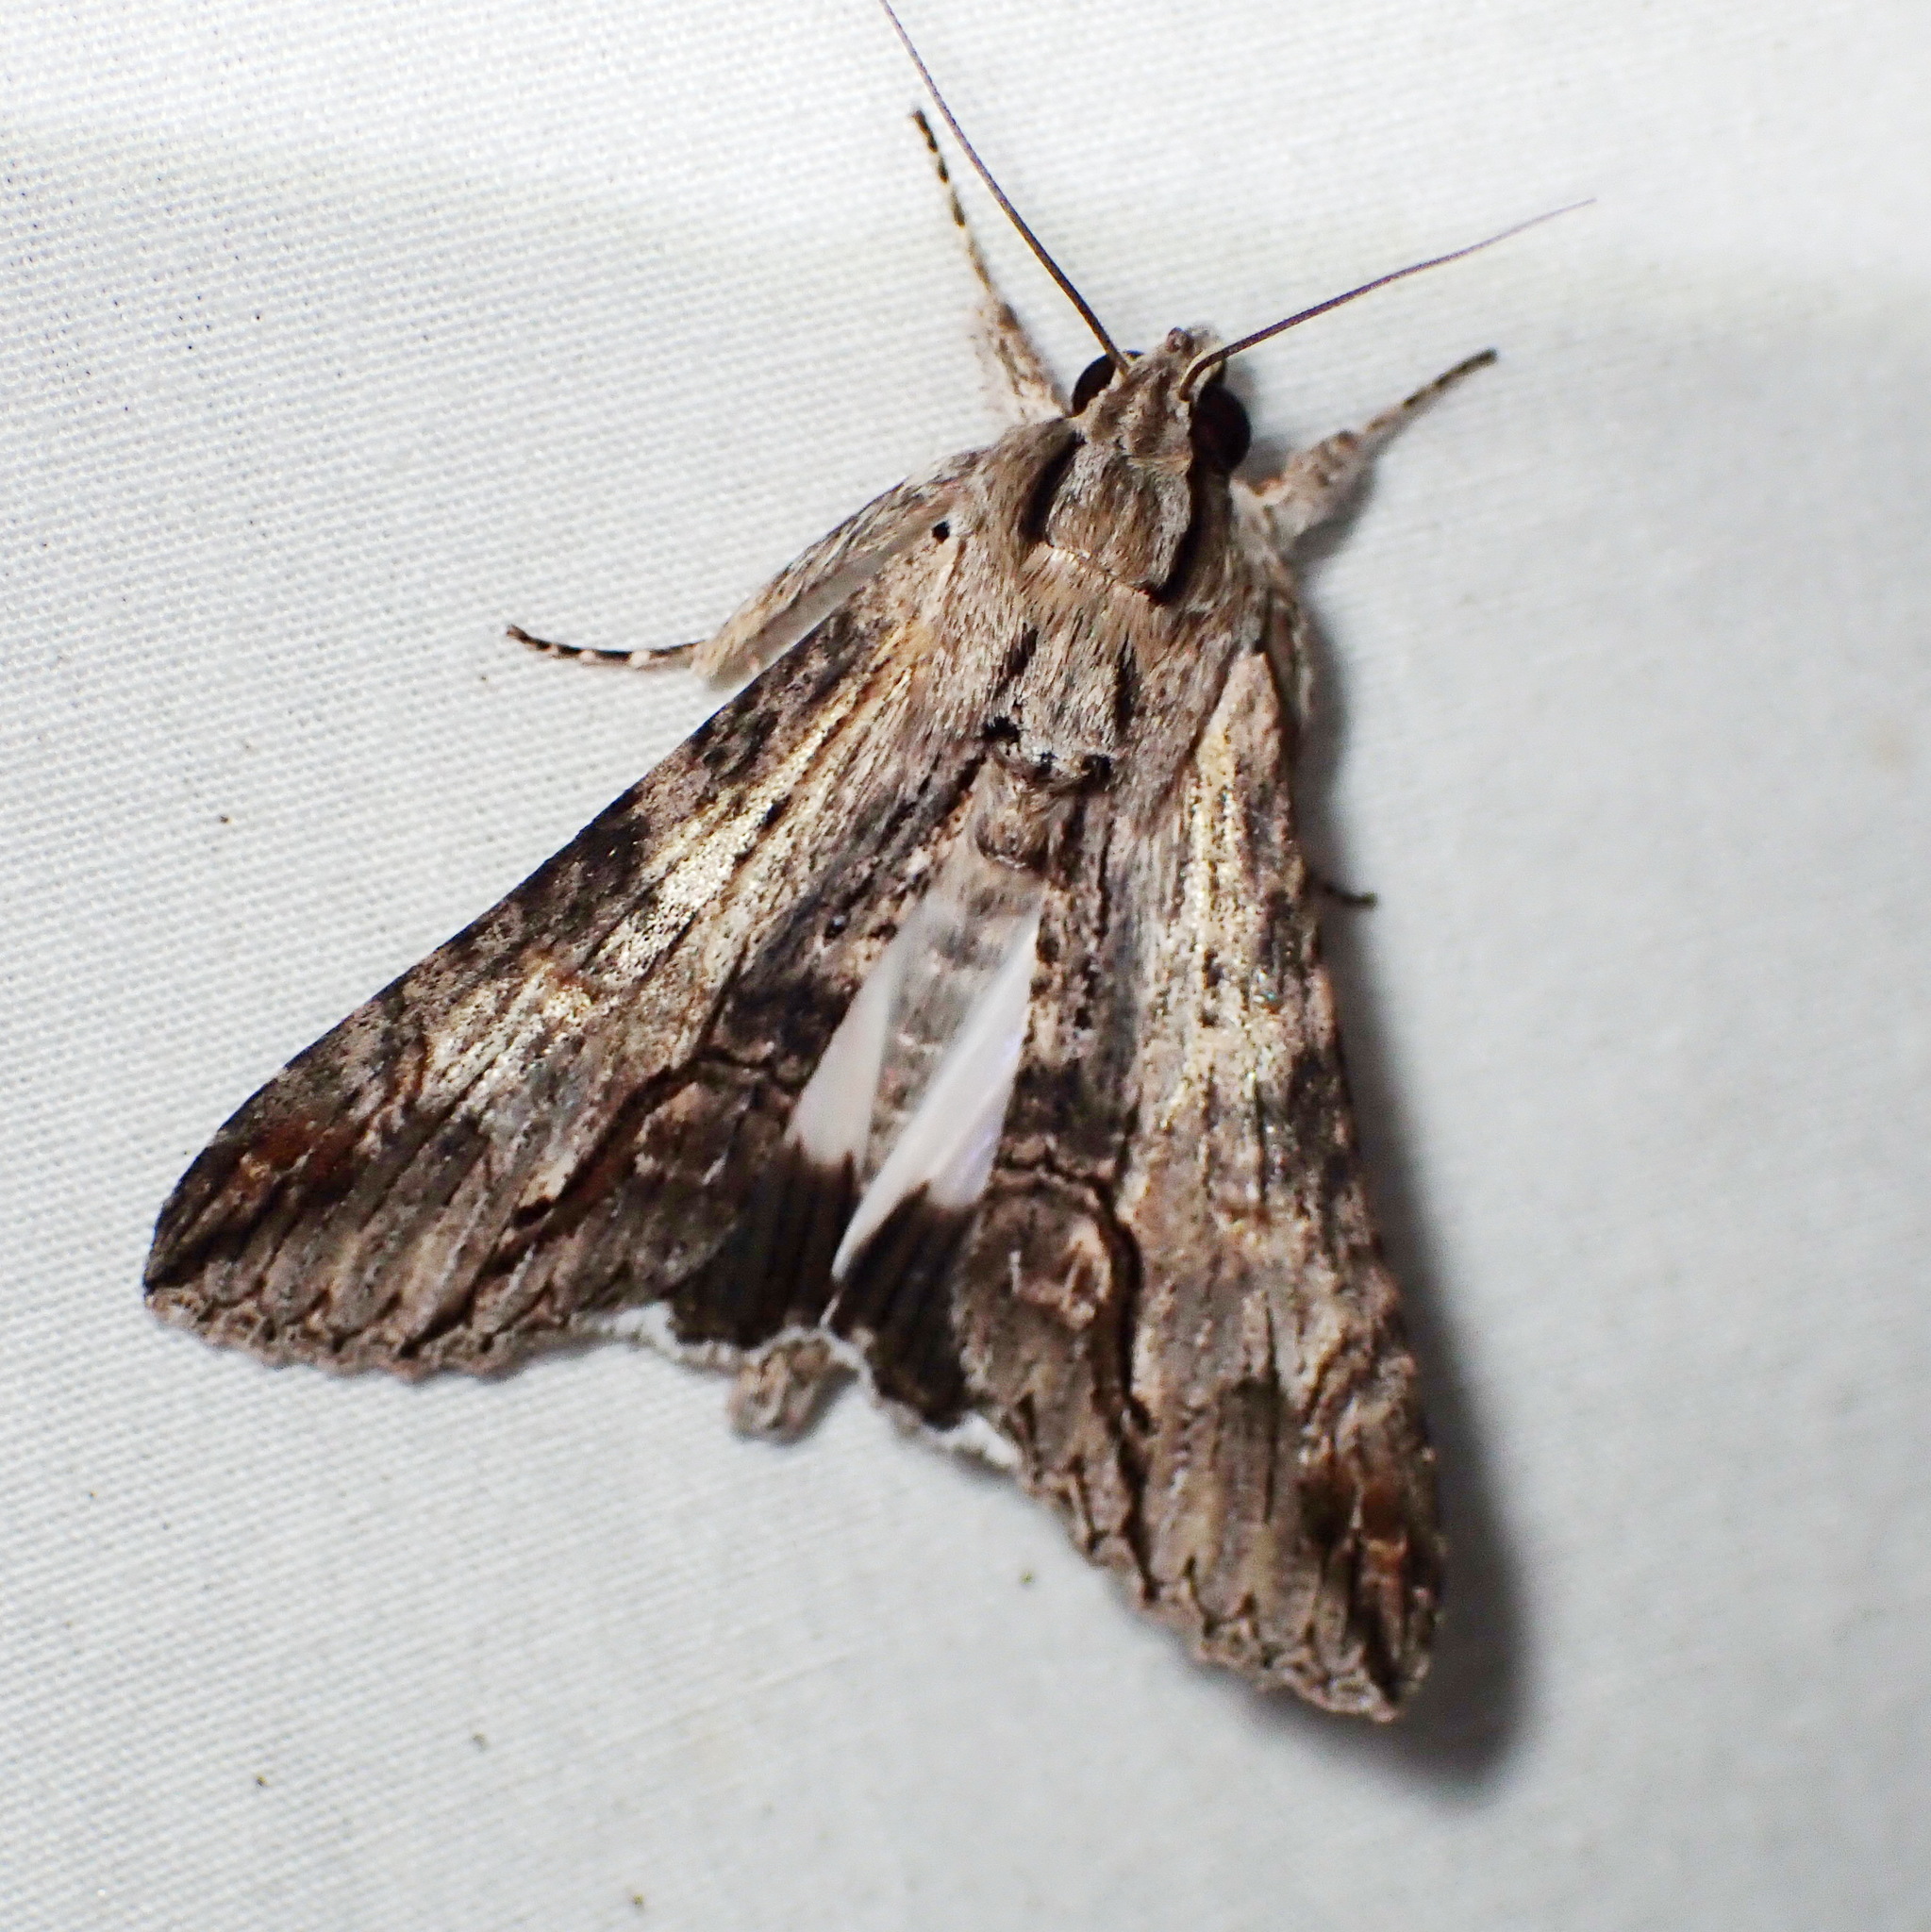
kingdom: Animalia
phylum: Arthropoda
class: Insecta
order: Lepidoptera
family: Erebidae
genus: Melipotis
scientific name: Melipotis acontioides
